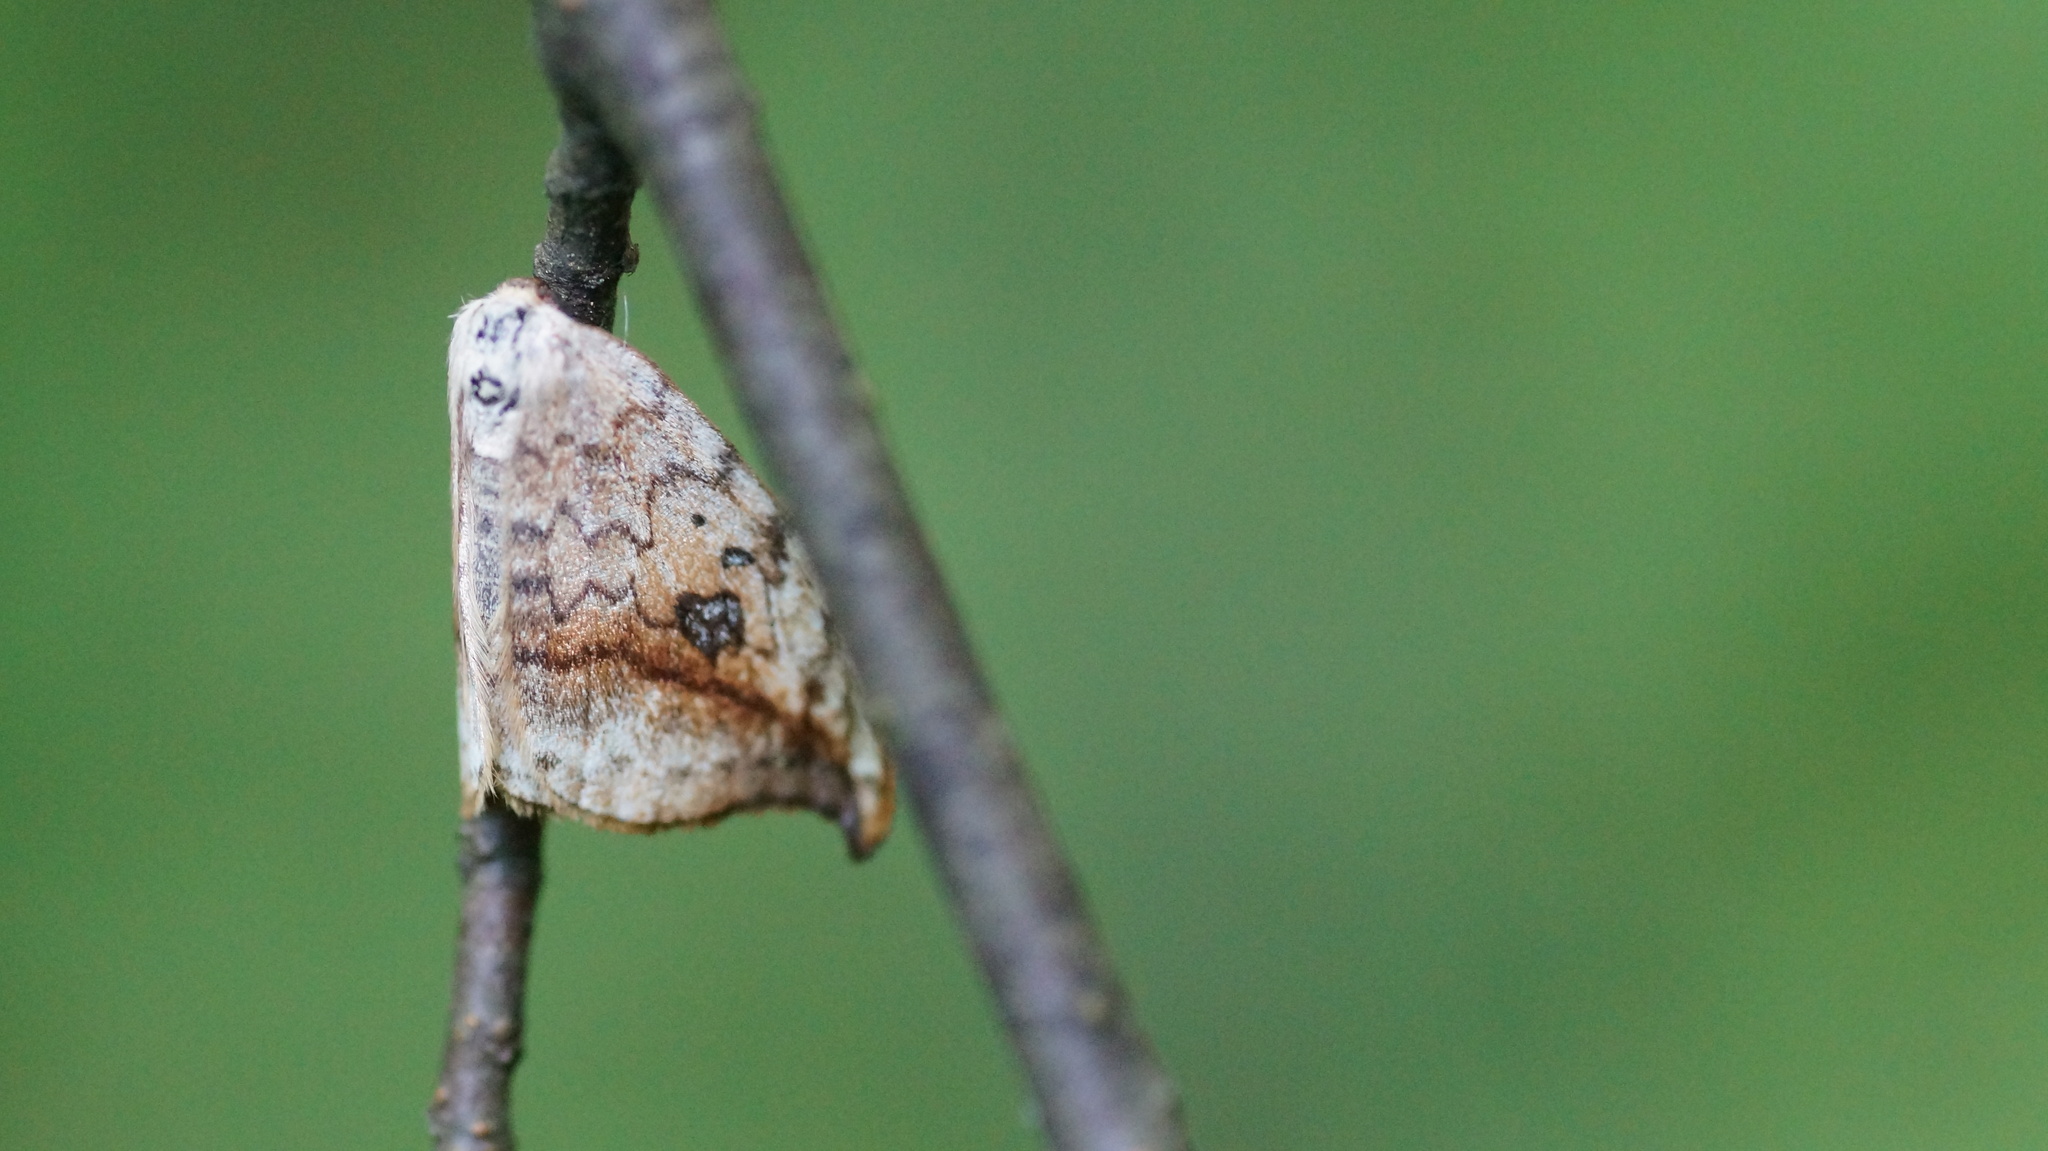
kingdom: Animalia
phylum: Arthropoda
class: Insecta
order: Lepidoptera
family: Drepanidae
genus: Drepana
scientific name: Drepana falcataria
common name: Pebble hook-tip
